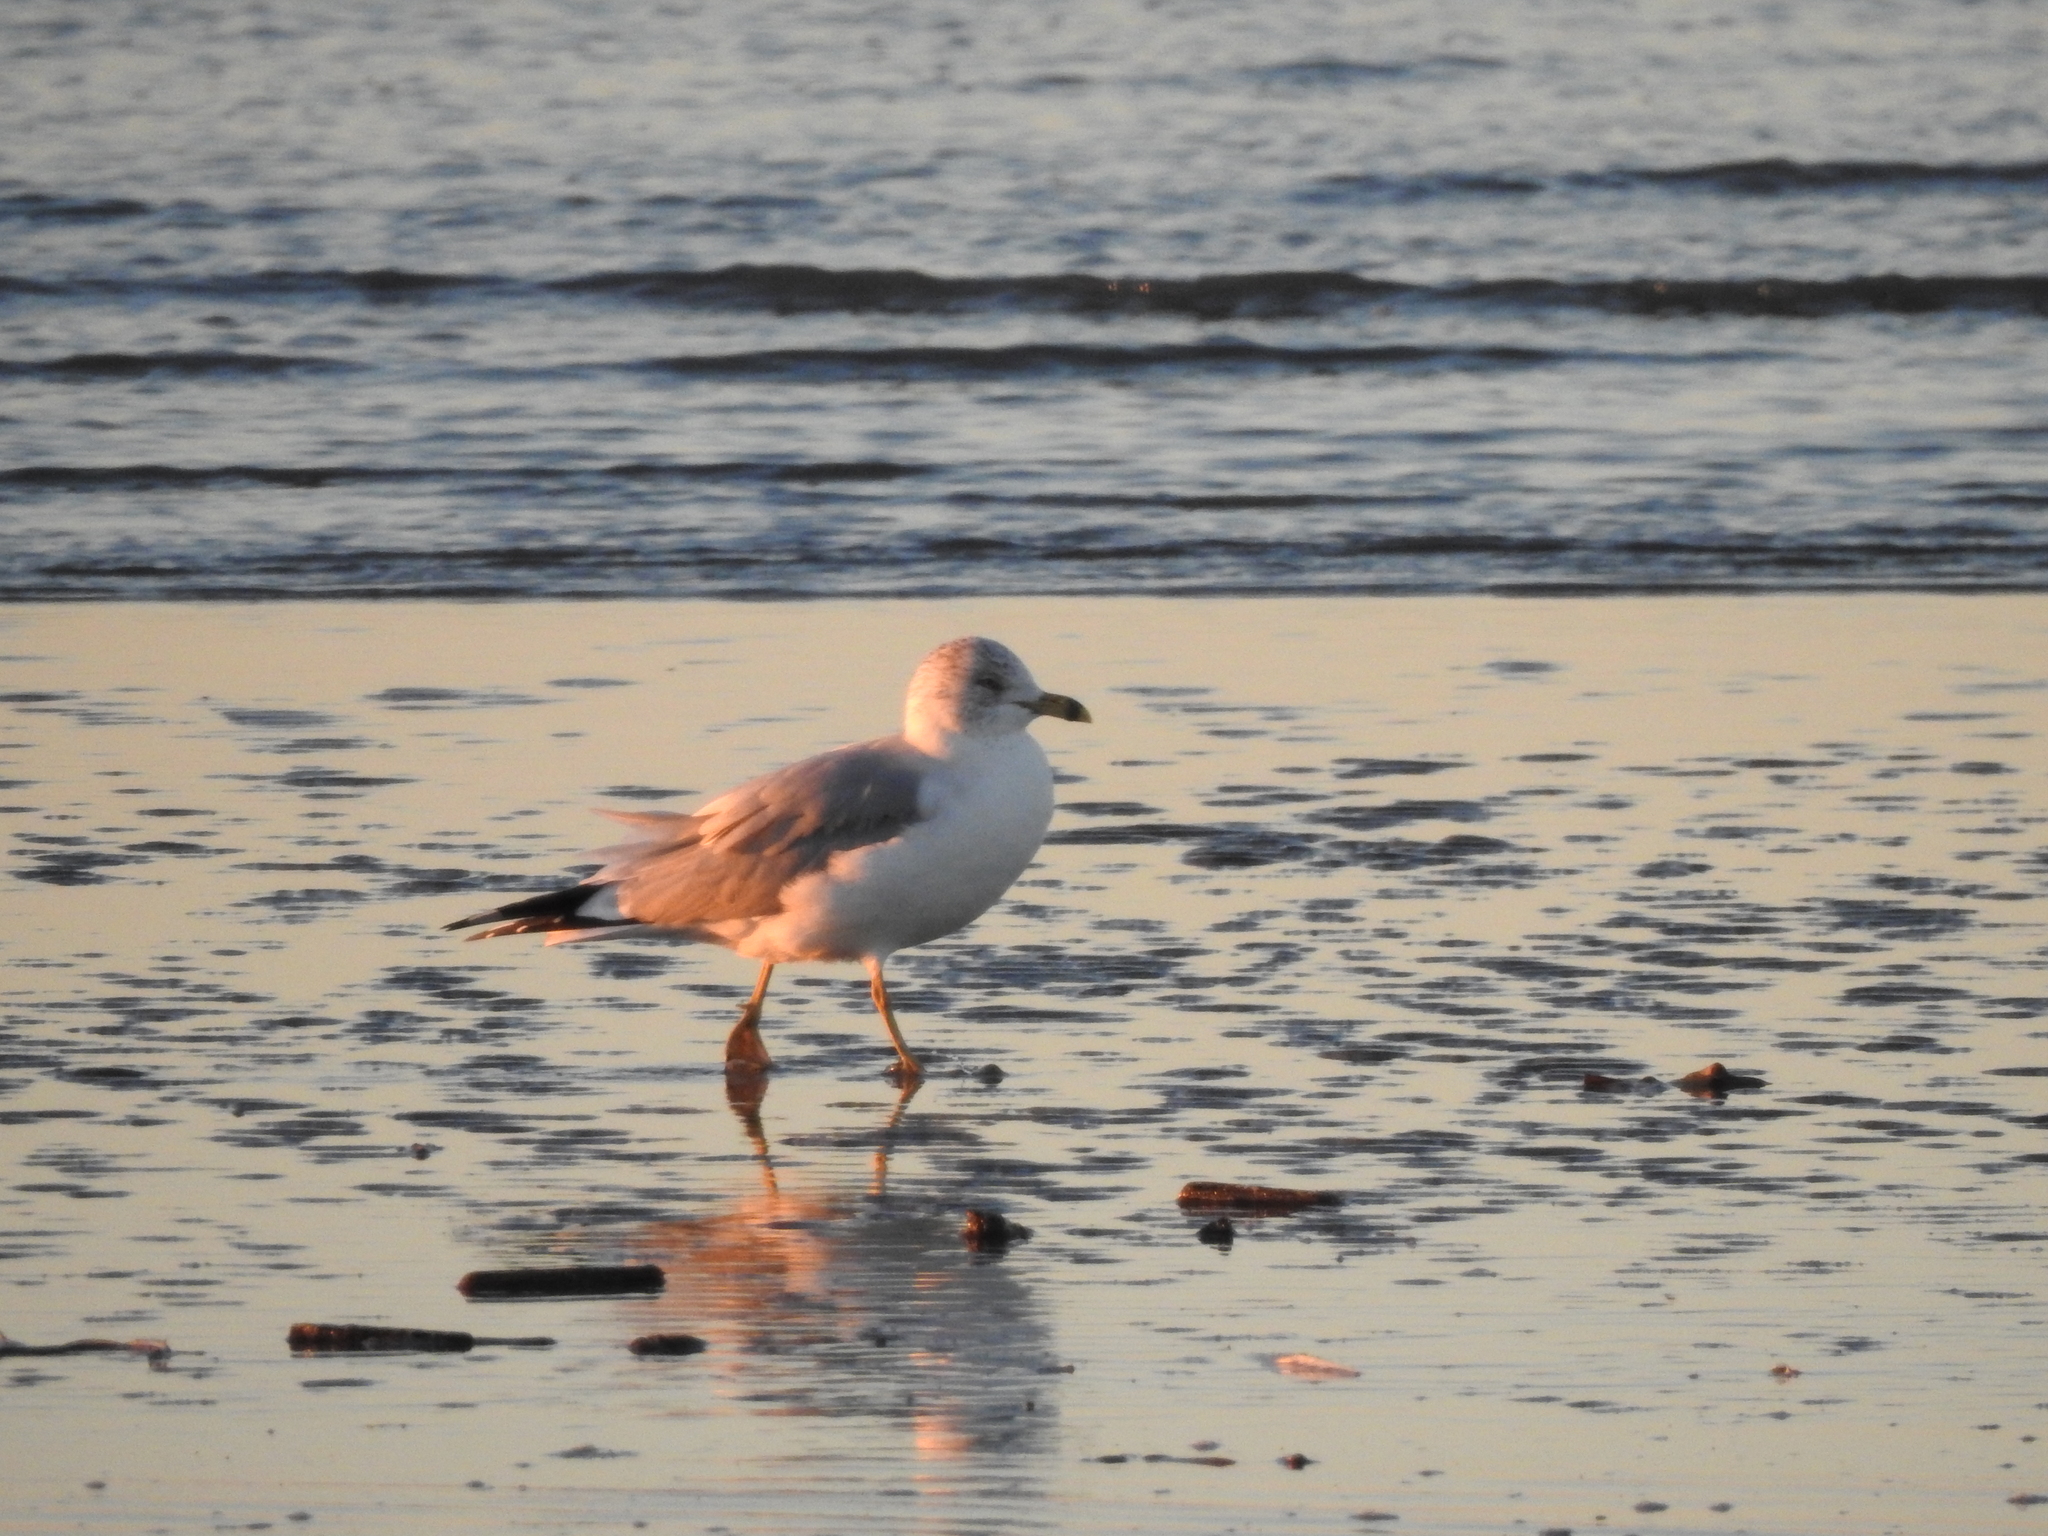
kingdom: Animalia
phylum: Chordata
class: Aves
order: Charadriiformes
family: Laridae
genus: Larus
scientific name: Larus delawarensis
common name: Ring-billed gull
